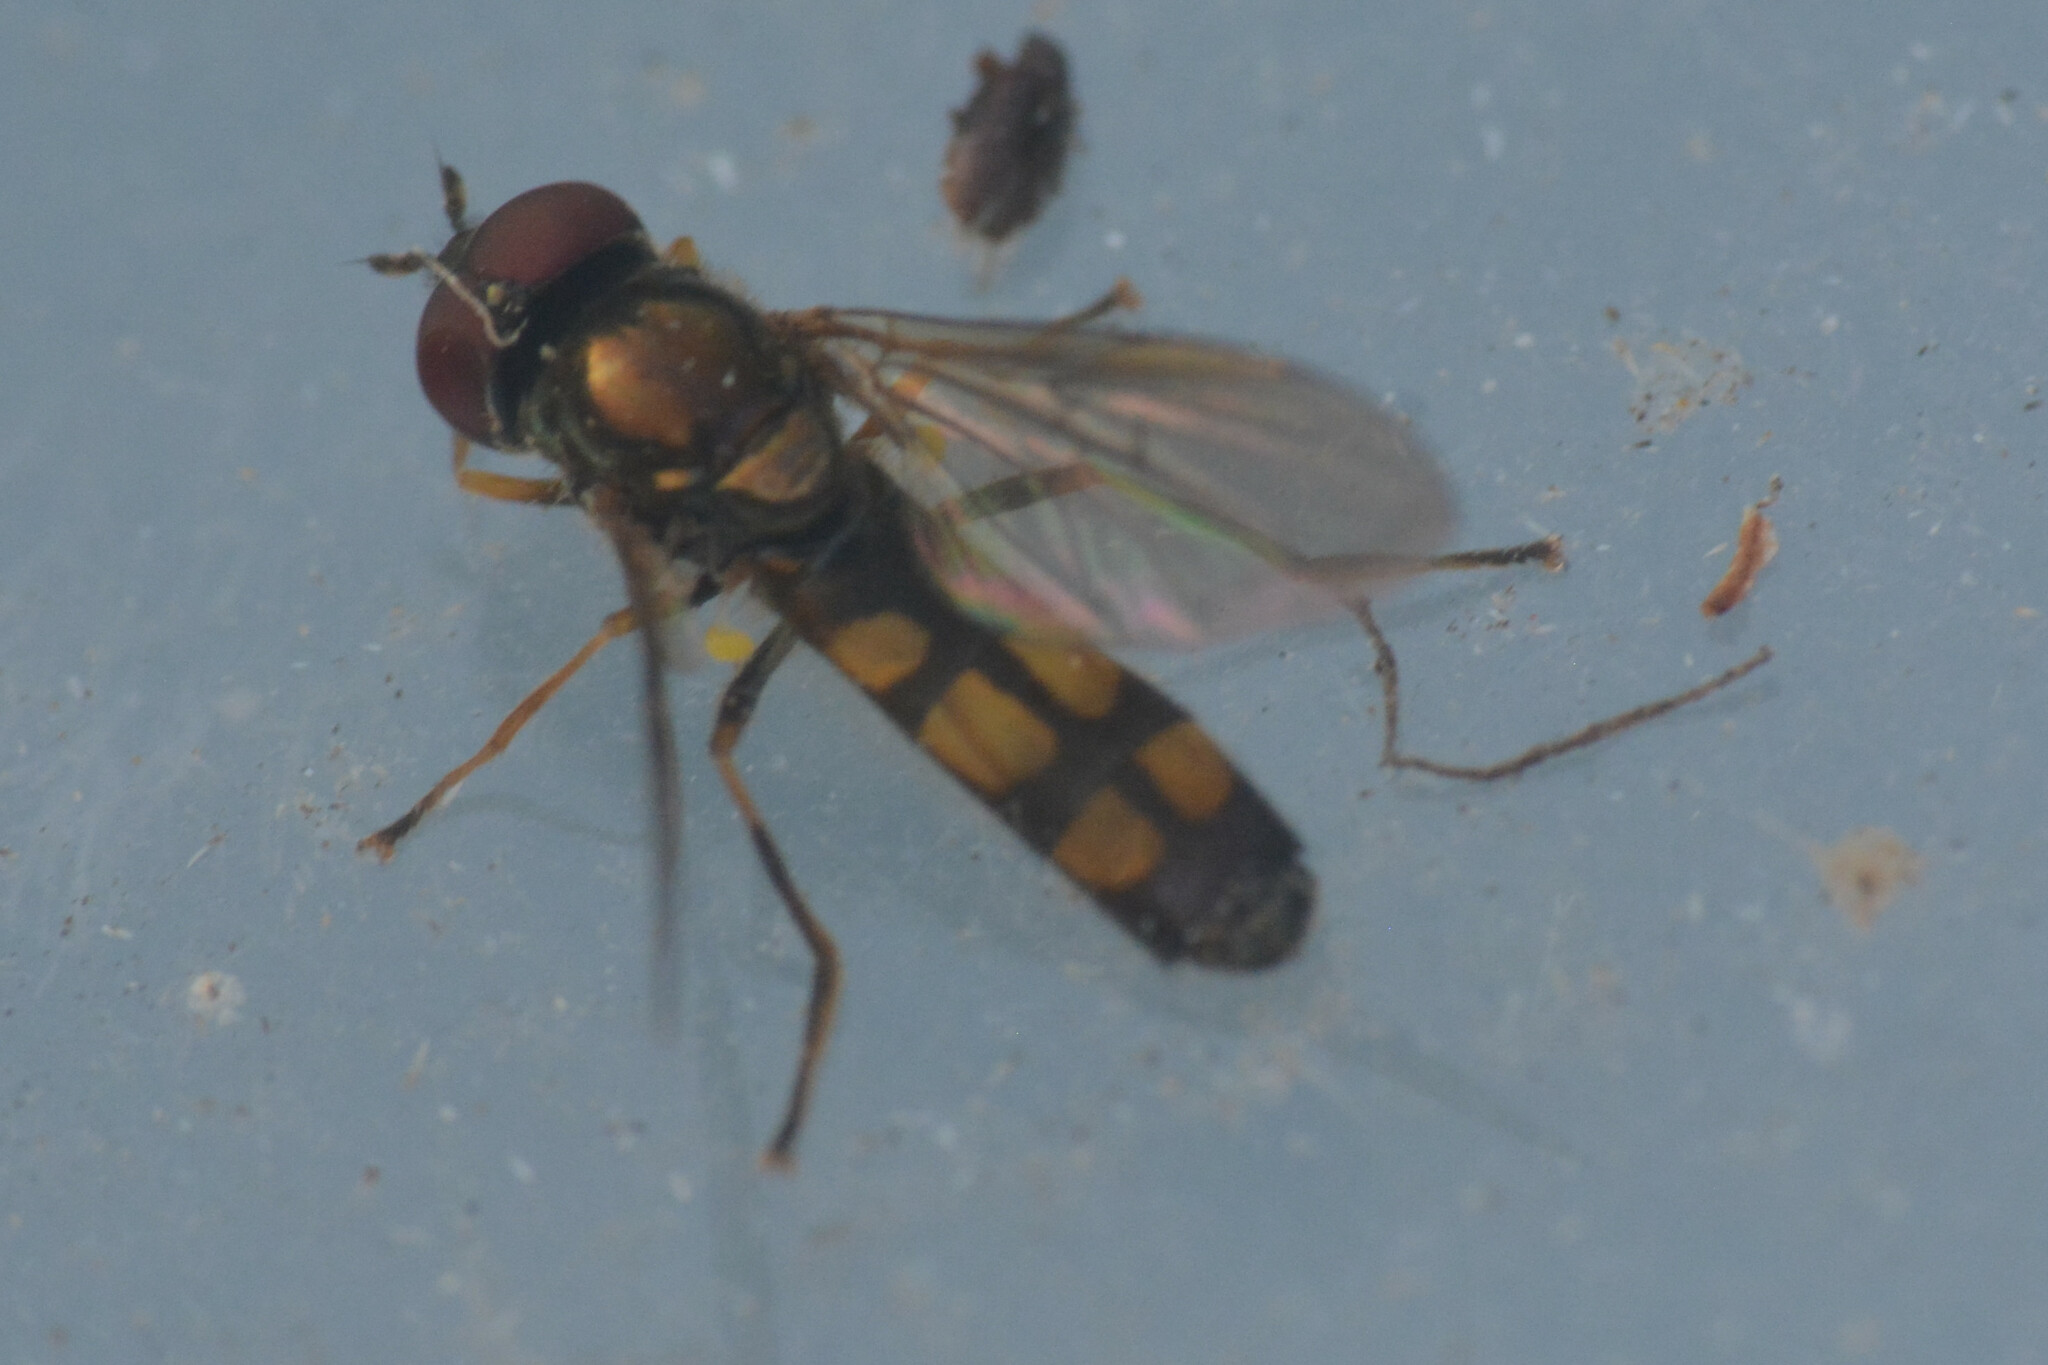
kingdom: Animalia
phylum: Arthropoda
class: Insecta
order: Diptera
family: Syrphidae
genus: Melanostoma
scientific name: Melanostoma mellina
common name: Hover fly
